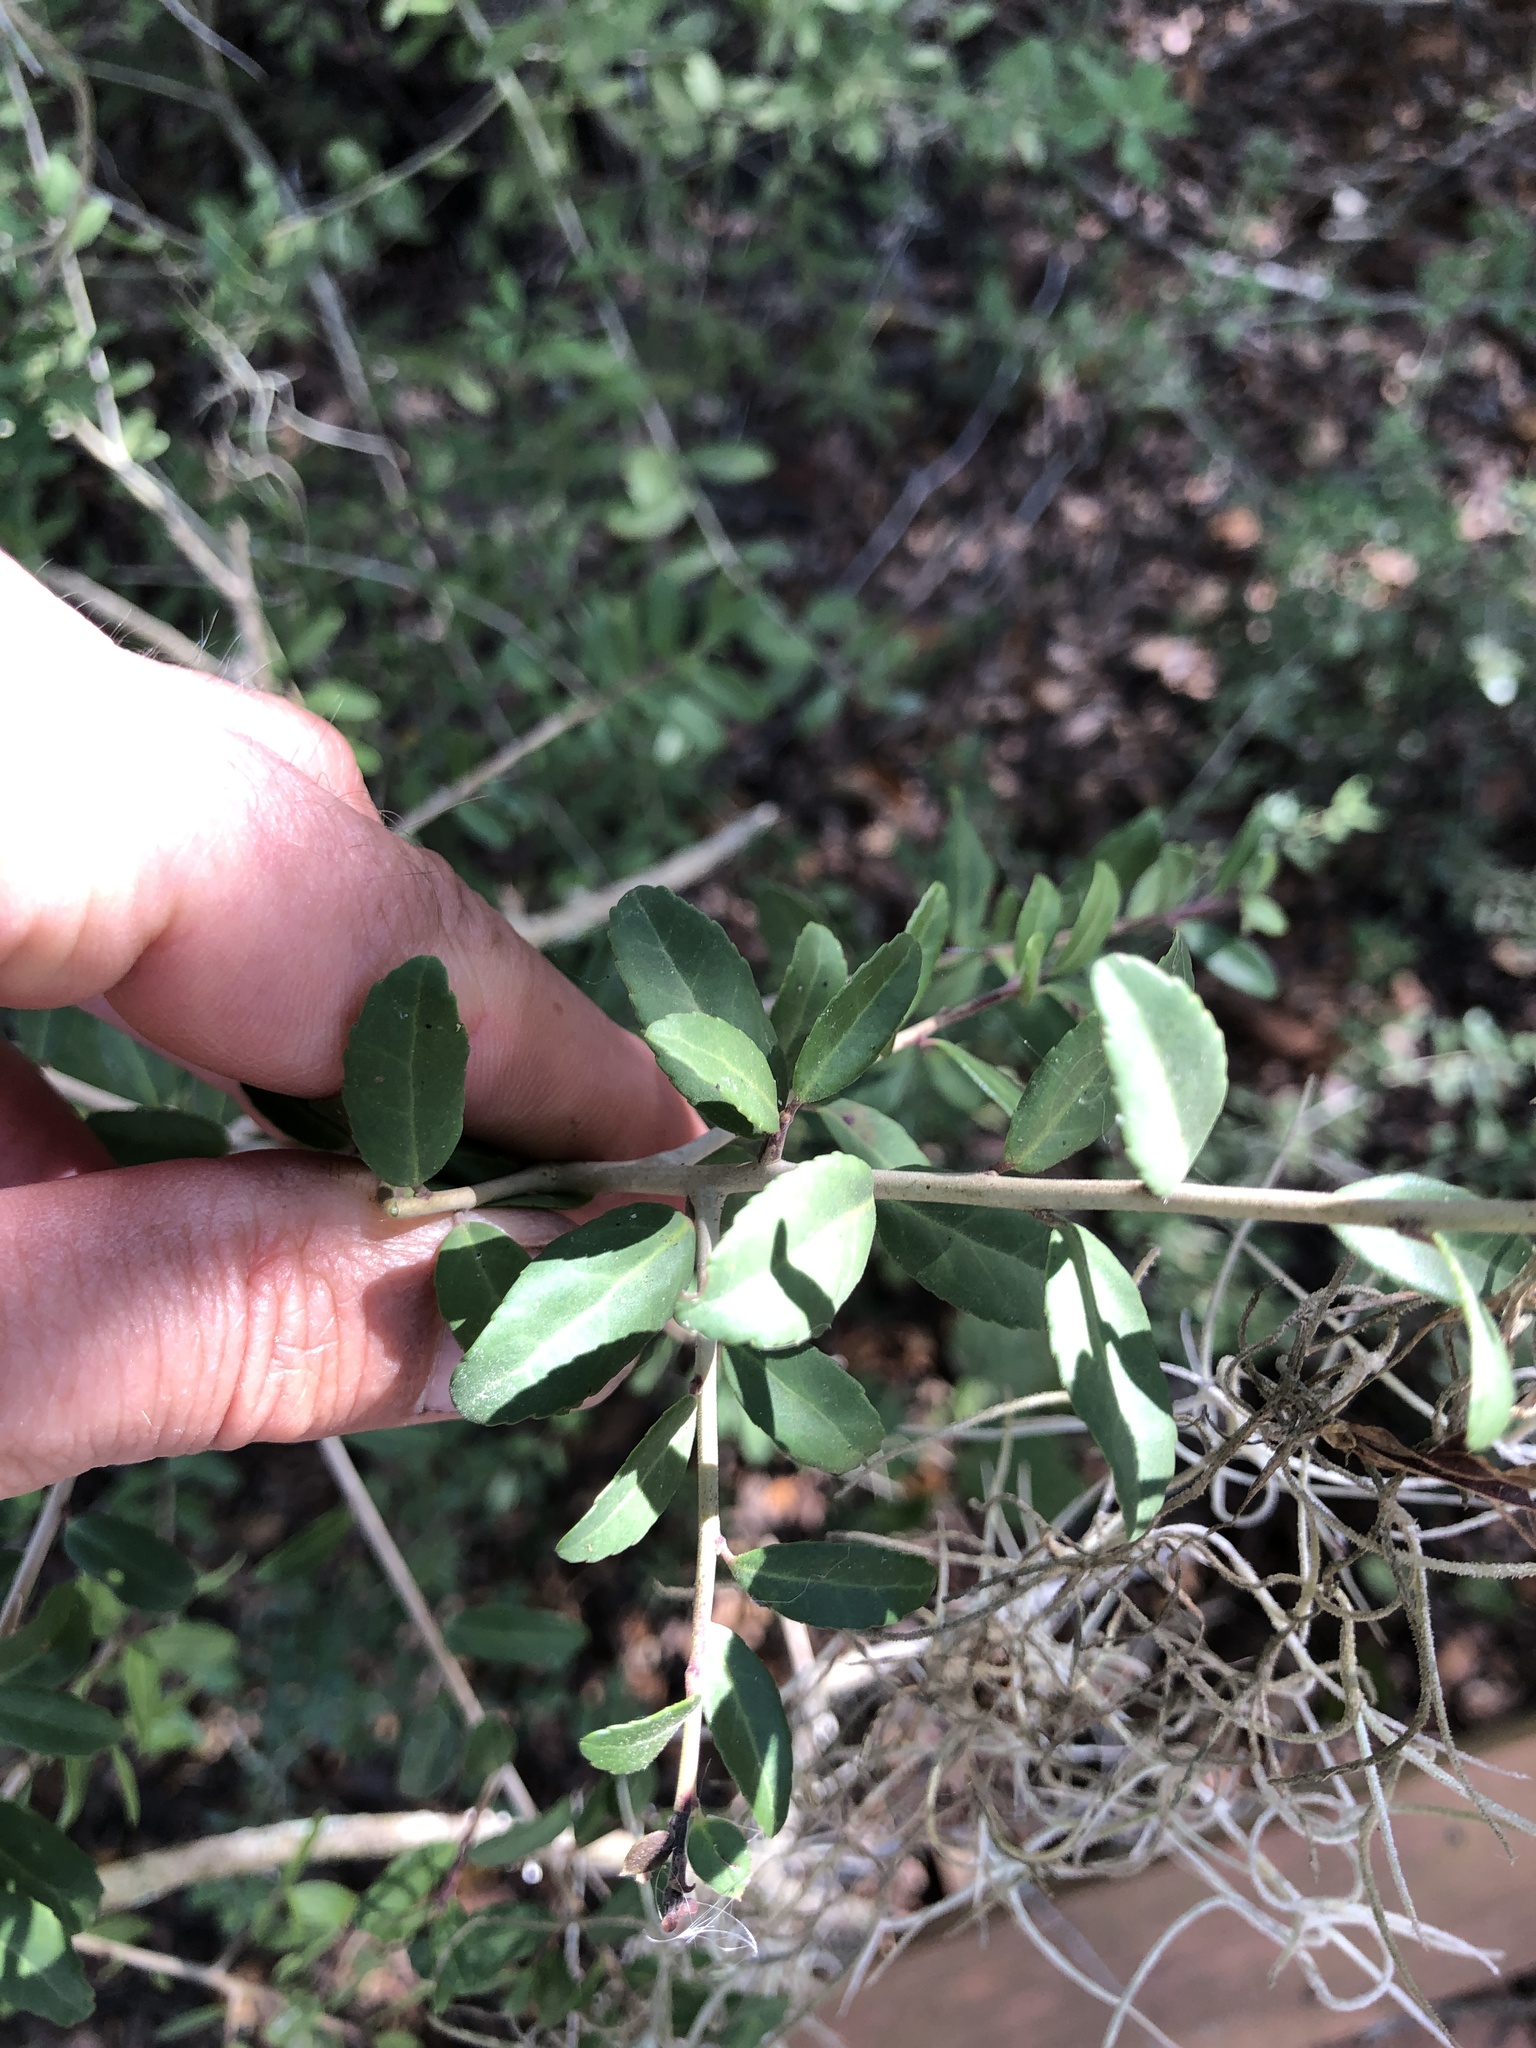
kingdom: Plantae
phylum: Tracheophyta
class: Magnoliopsida
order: Aquifoliales
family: Aquifoliaceae
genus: Ilex
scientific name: Ilex vomitoria
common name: Yaupon holly
